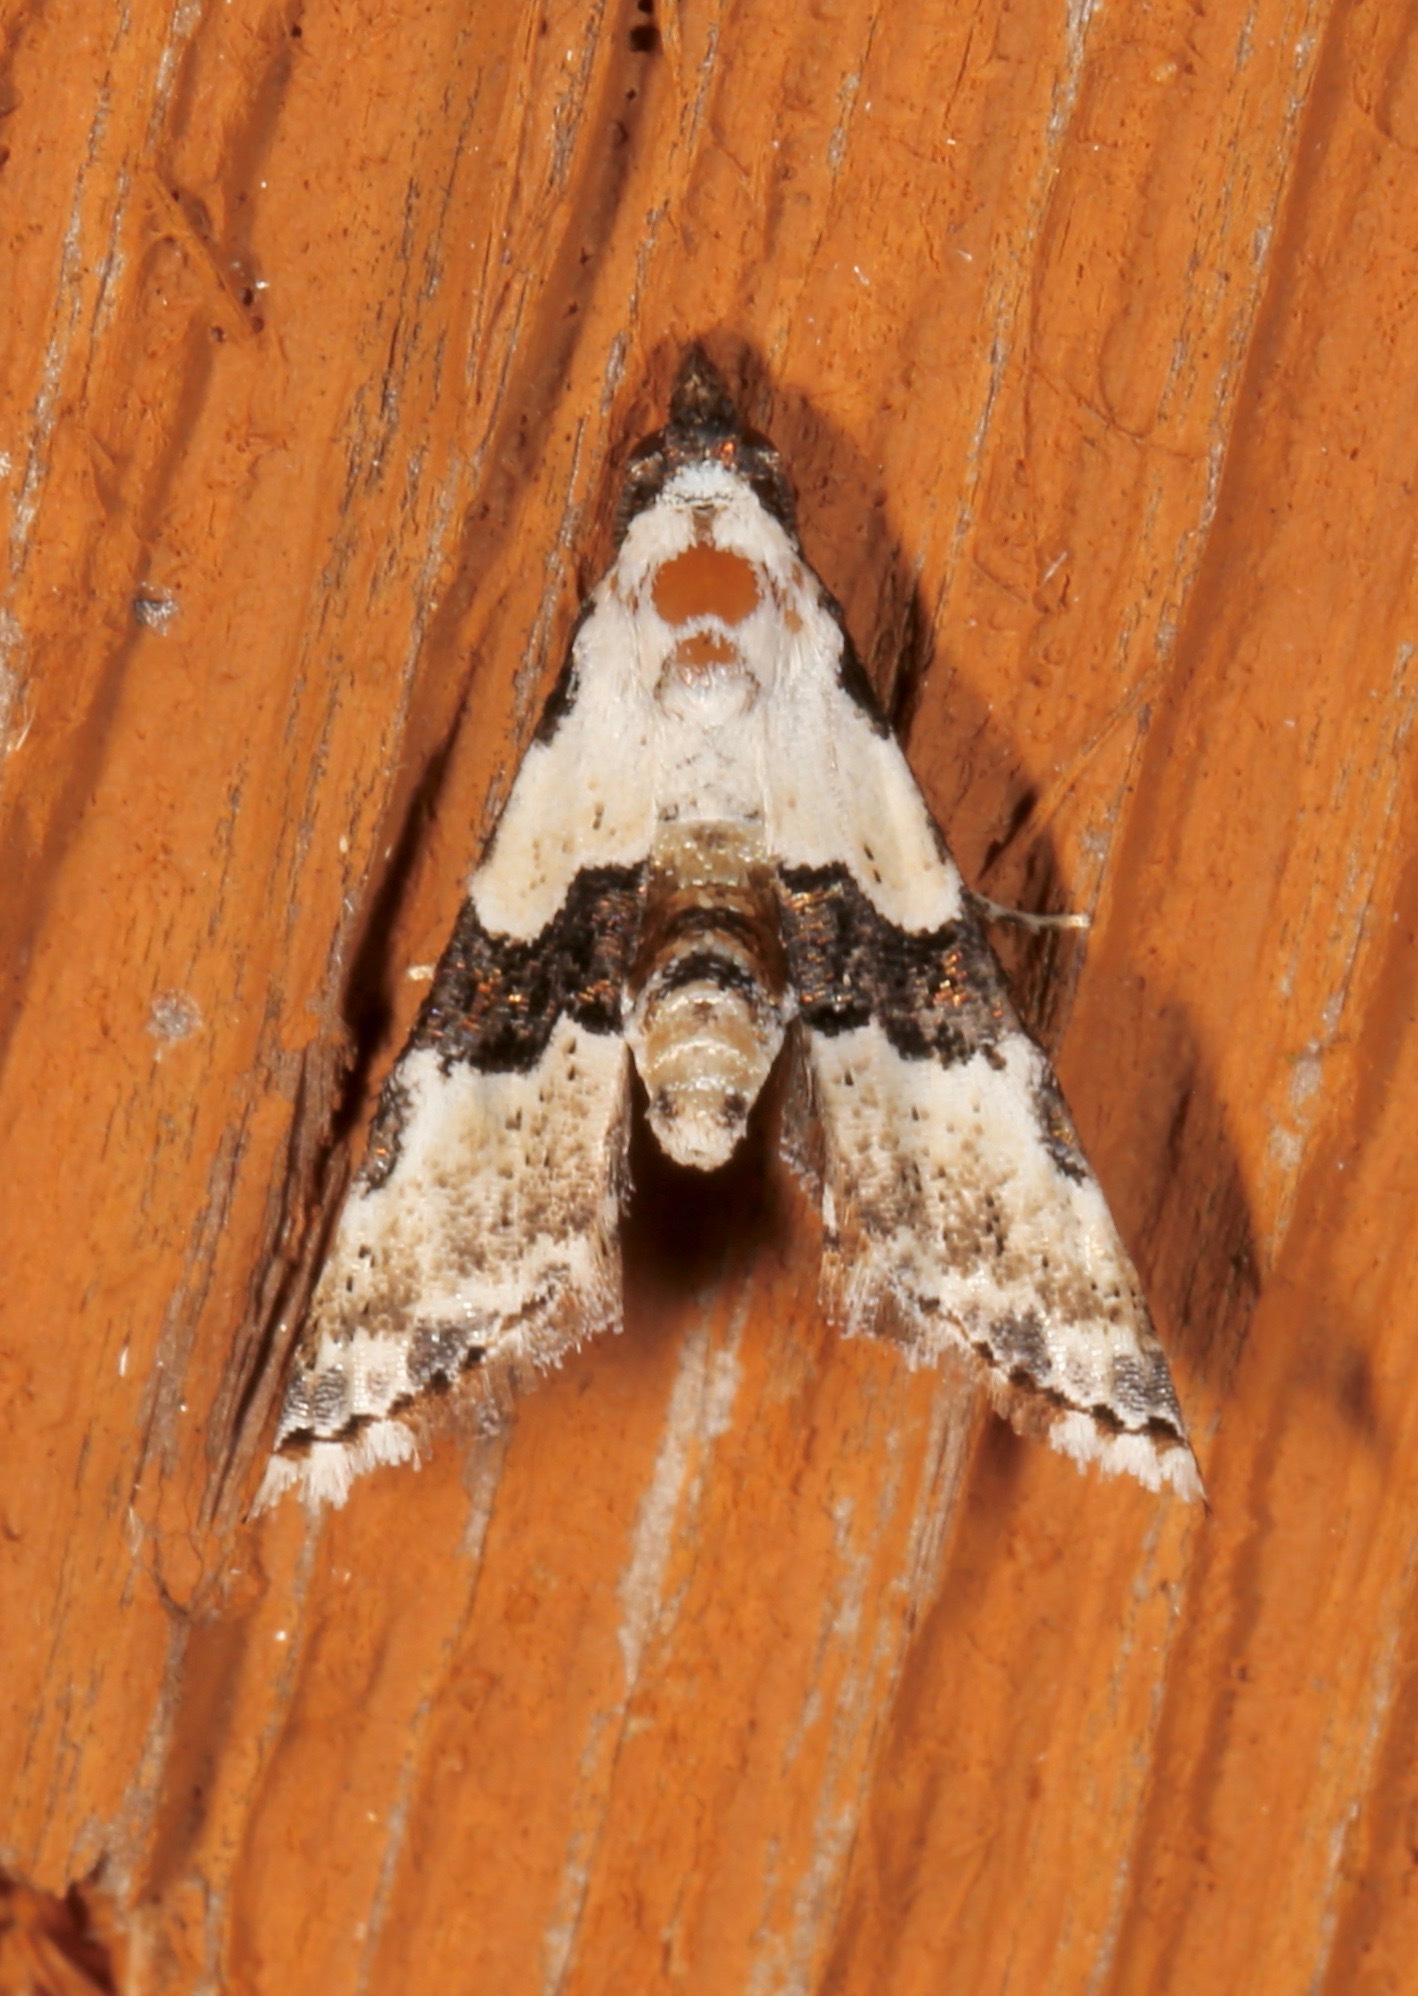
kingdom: Animalia
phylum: Arthropoda
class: Insecta
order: Lepidoptera
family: Noctuidae
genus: Nigetia
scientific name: Nigetia formosalis
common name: Thin-winged owlet
